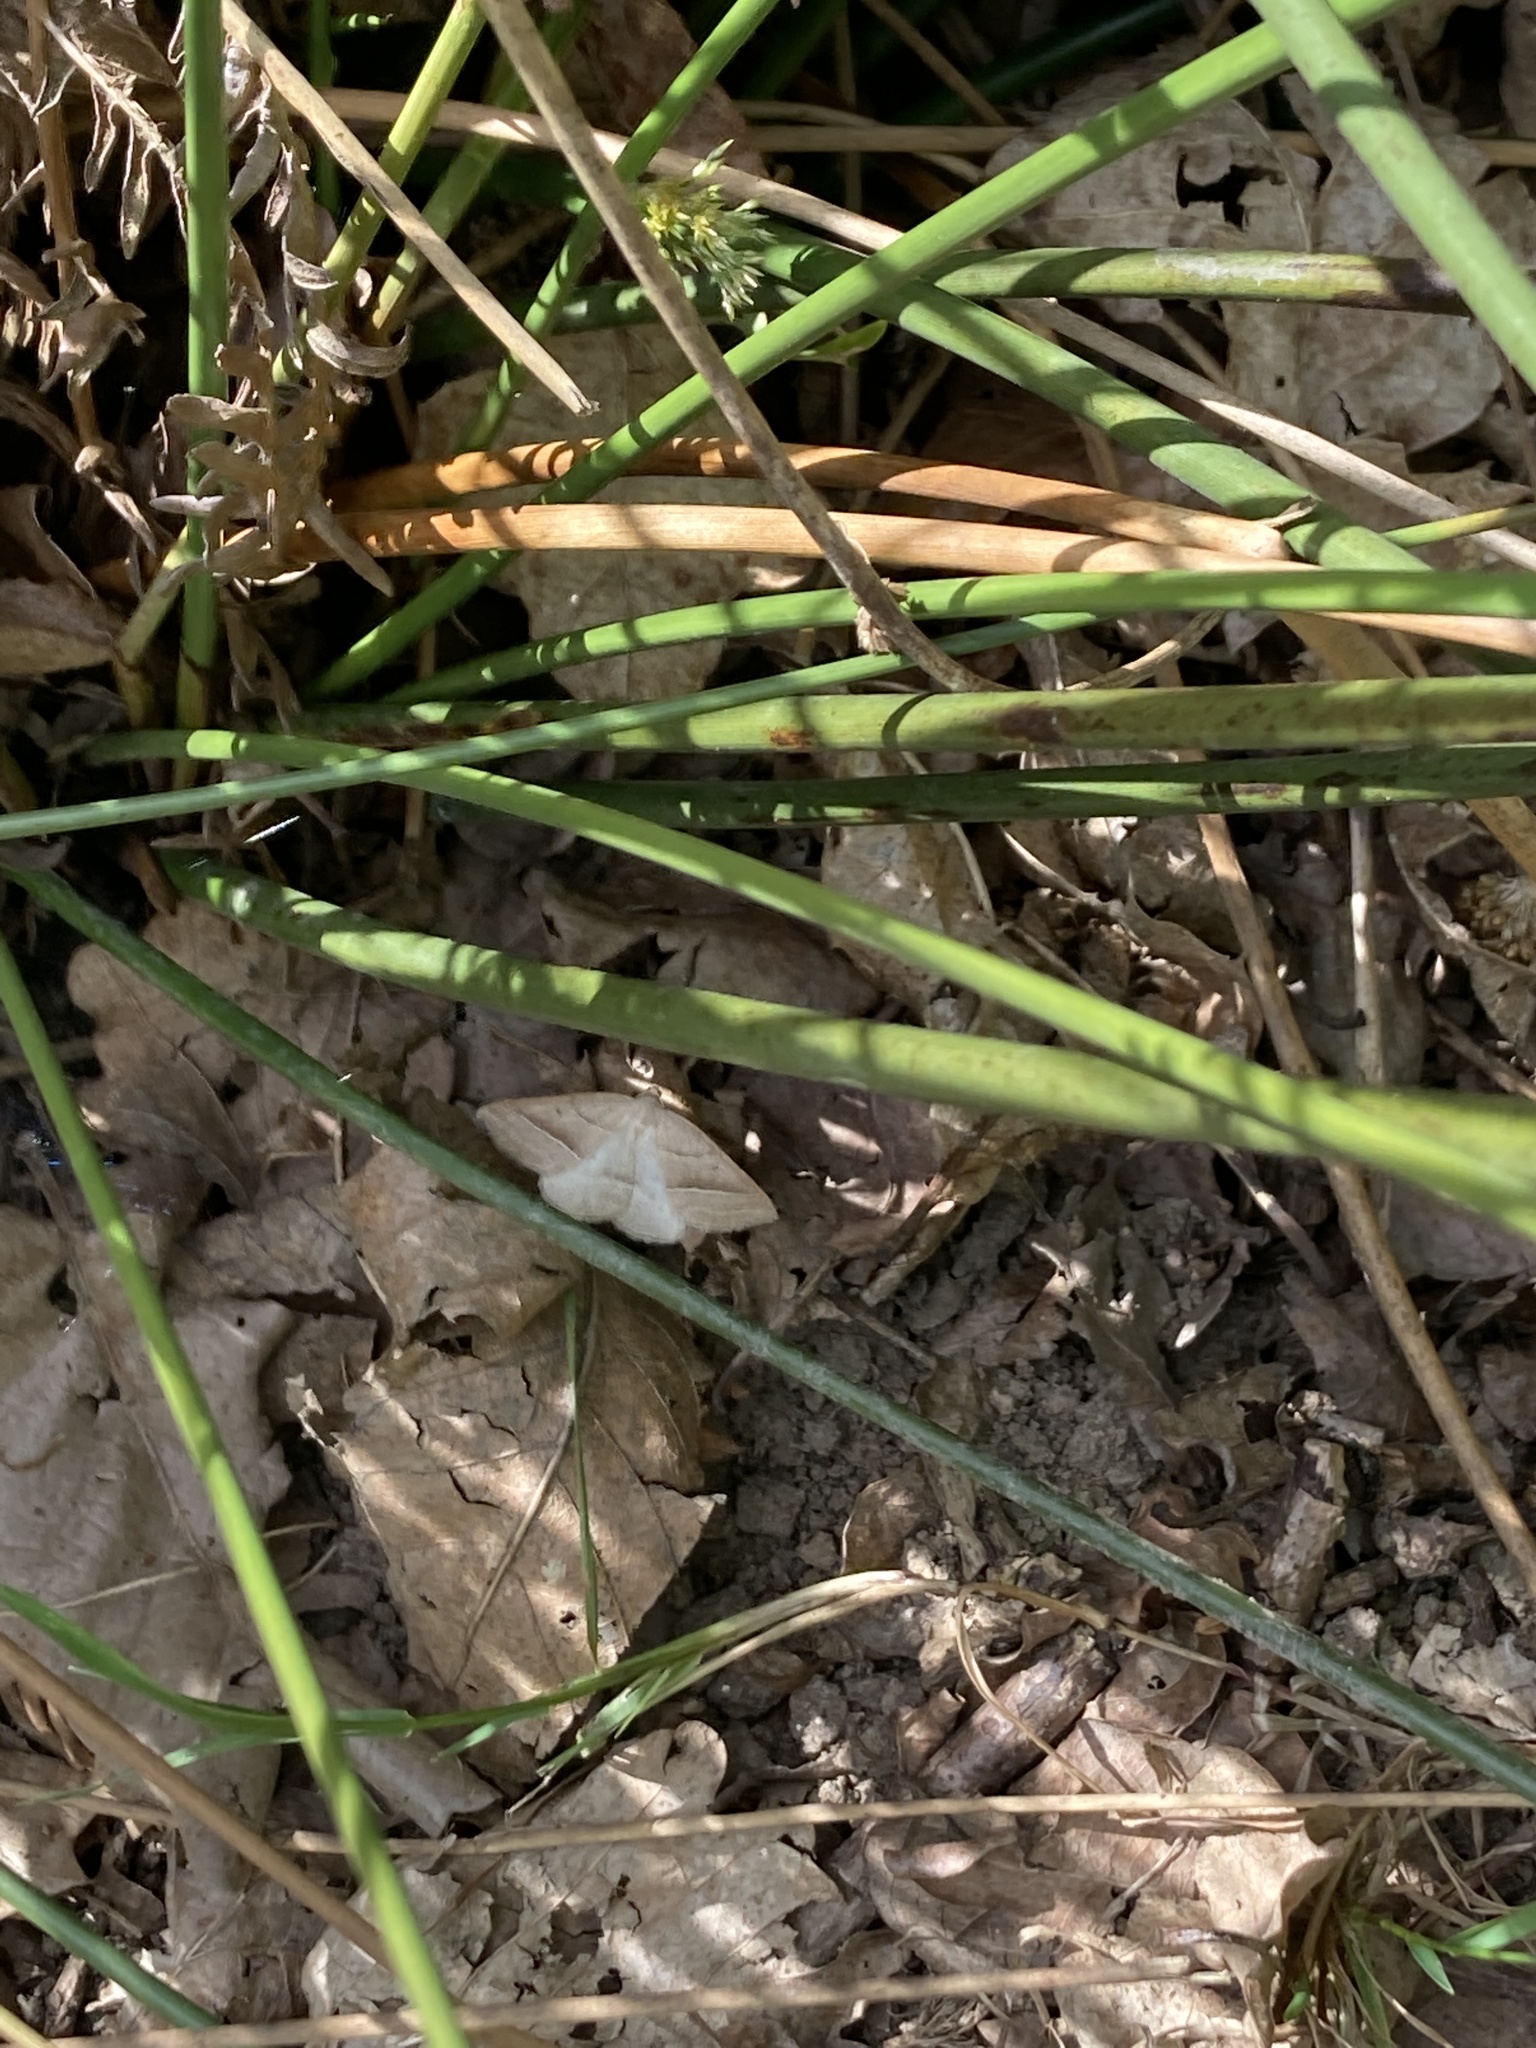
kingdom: Animalia
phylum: Arthropoda
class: Insecta
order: Lepidoptera
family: Pterophoridae
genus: Pterophorus
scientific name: Pterophorus Petrophora chlorosata
